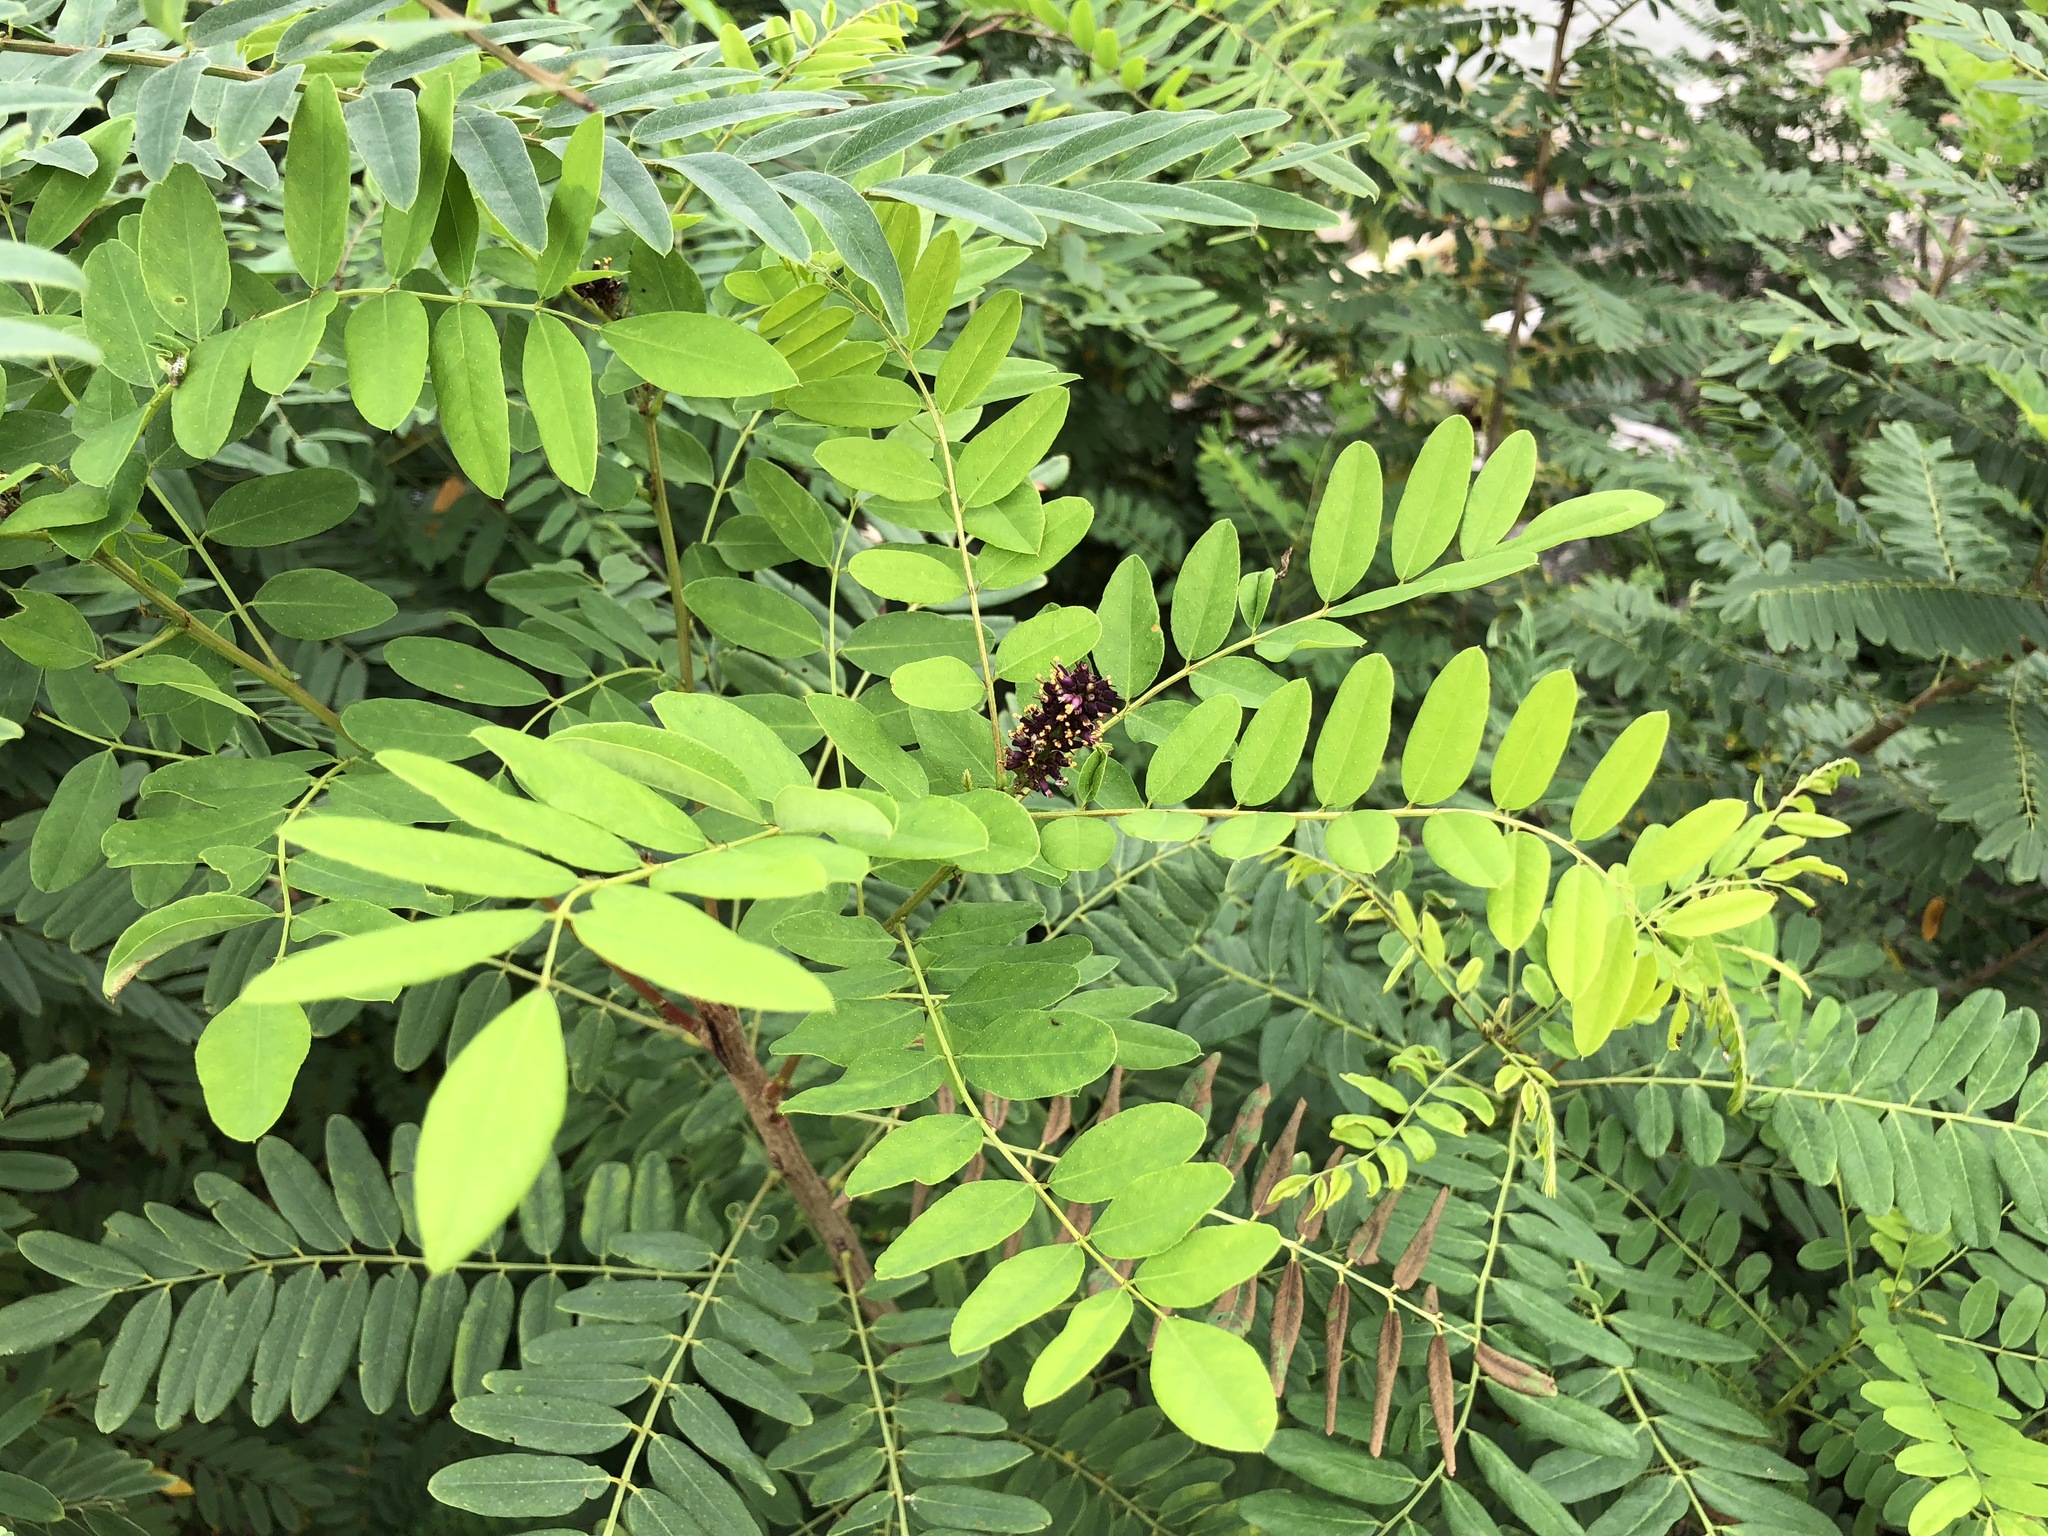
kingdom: Plantae
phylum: Tracheophyta
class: Magnoliopsida
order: Fabales
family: Fabaceae
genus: Amorpha
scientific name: Amorpha fruticosa
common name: False indigo
